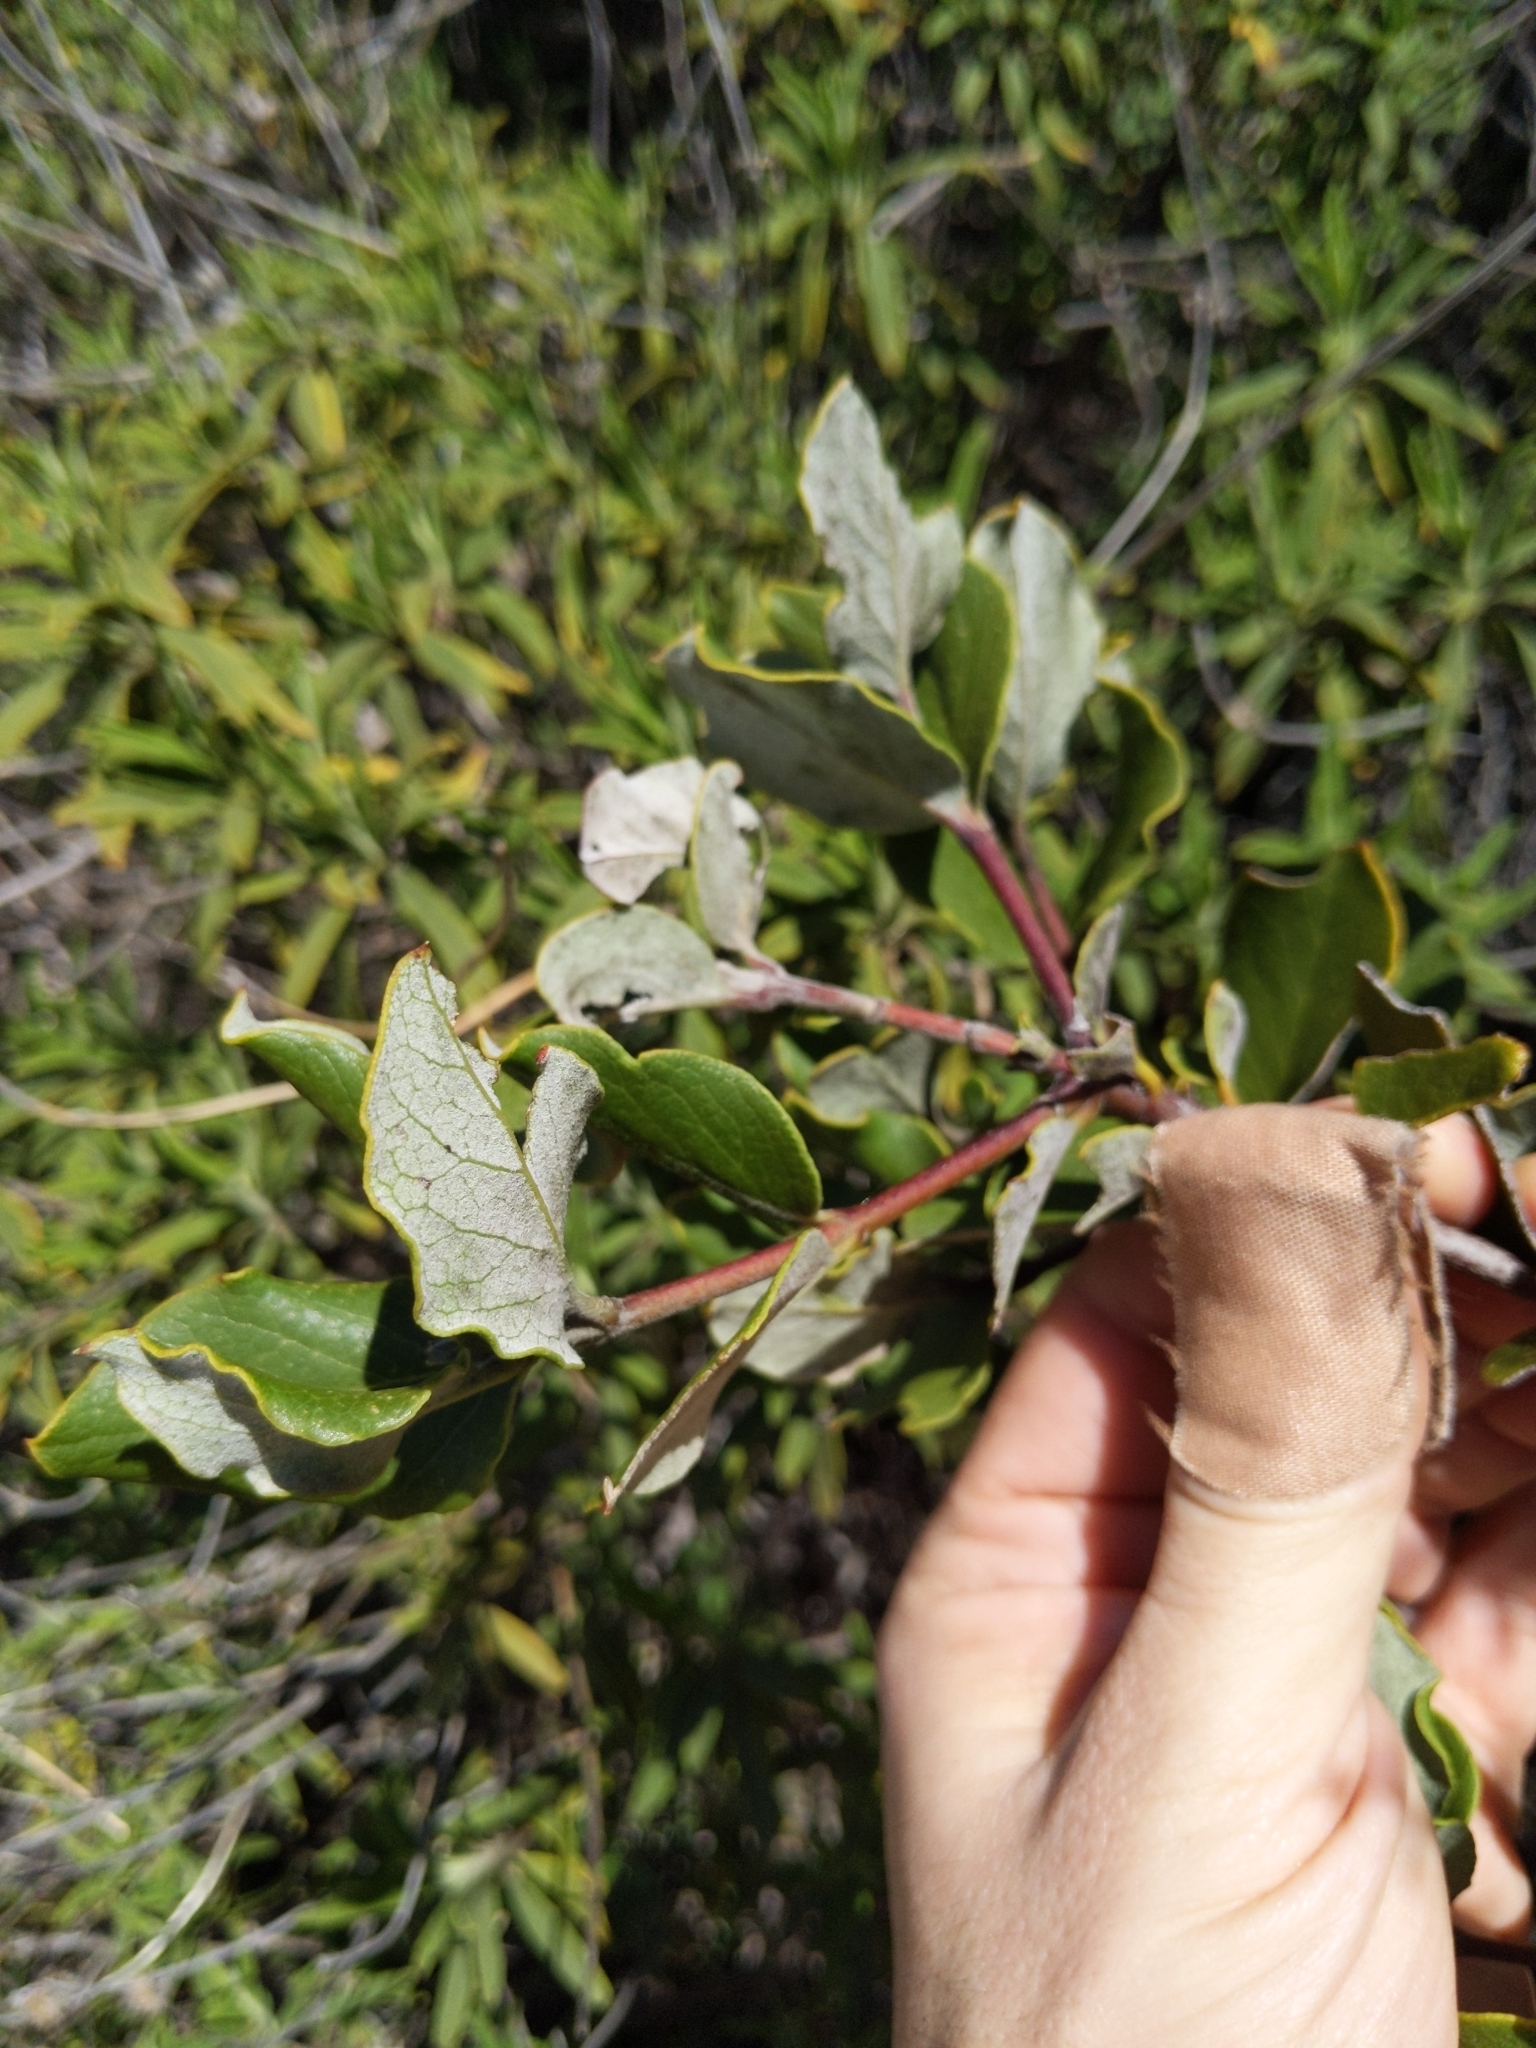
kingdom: Plantae
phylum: Tracheophyta
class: Magnoliopsida
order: Garryales
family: Garryaceae
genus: Garrya
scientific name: Garrya elliptica
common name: Silk-tassel
